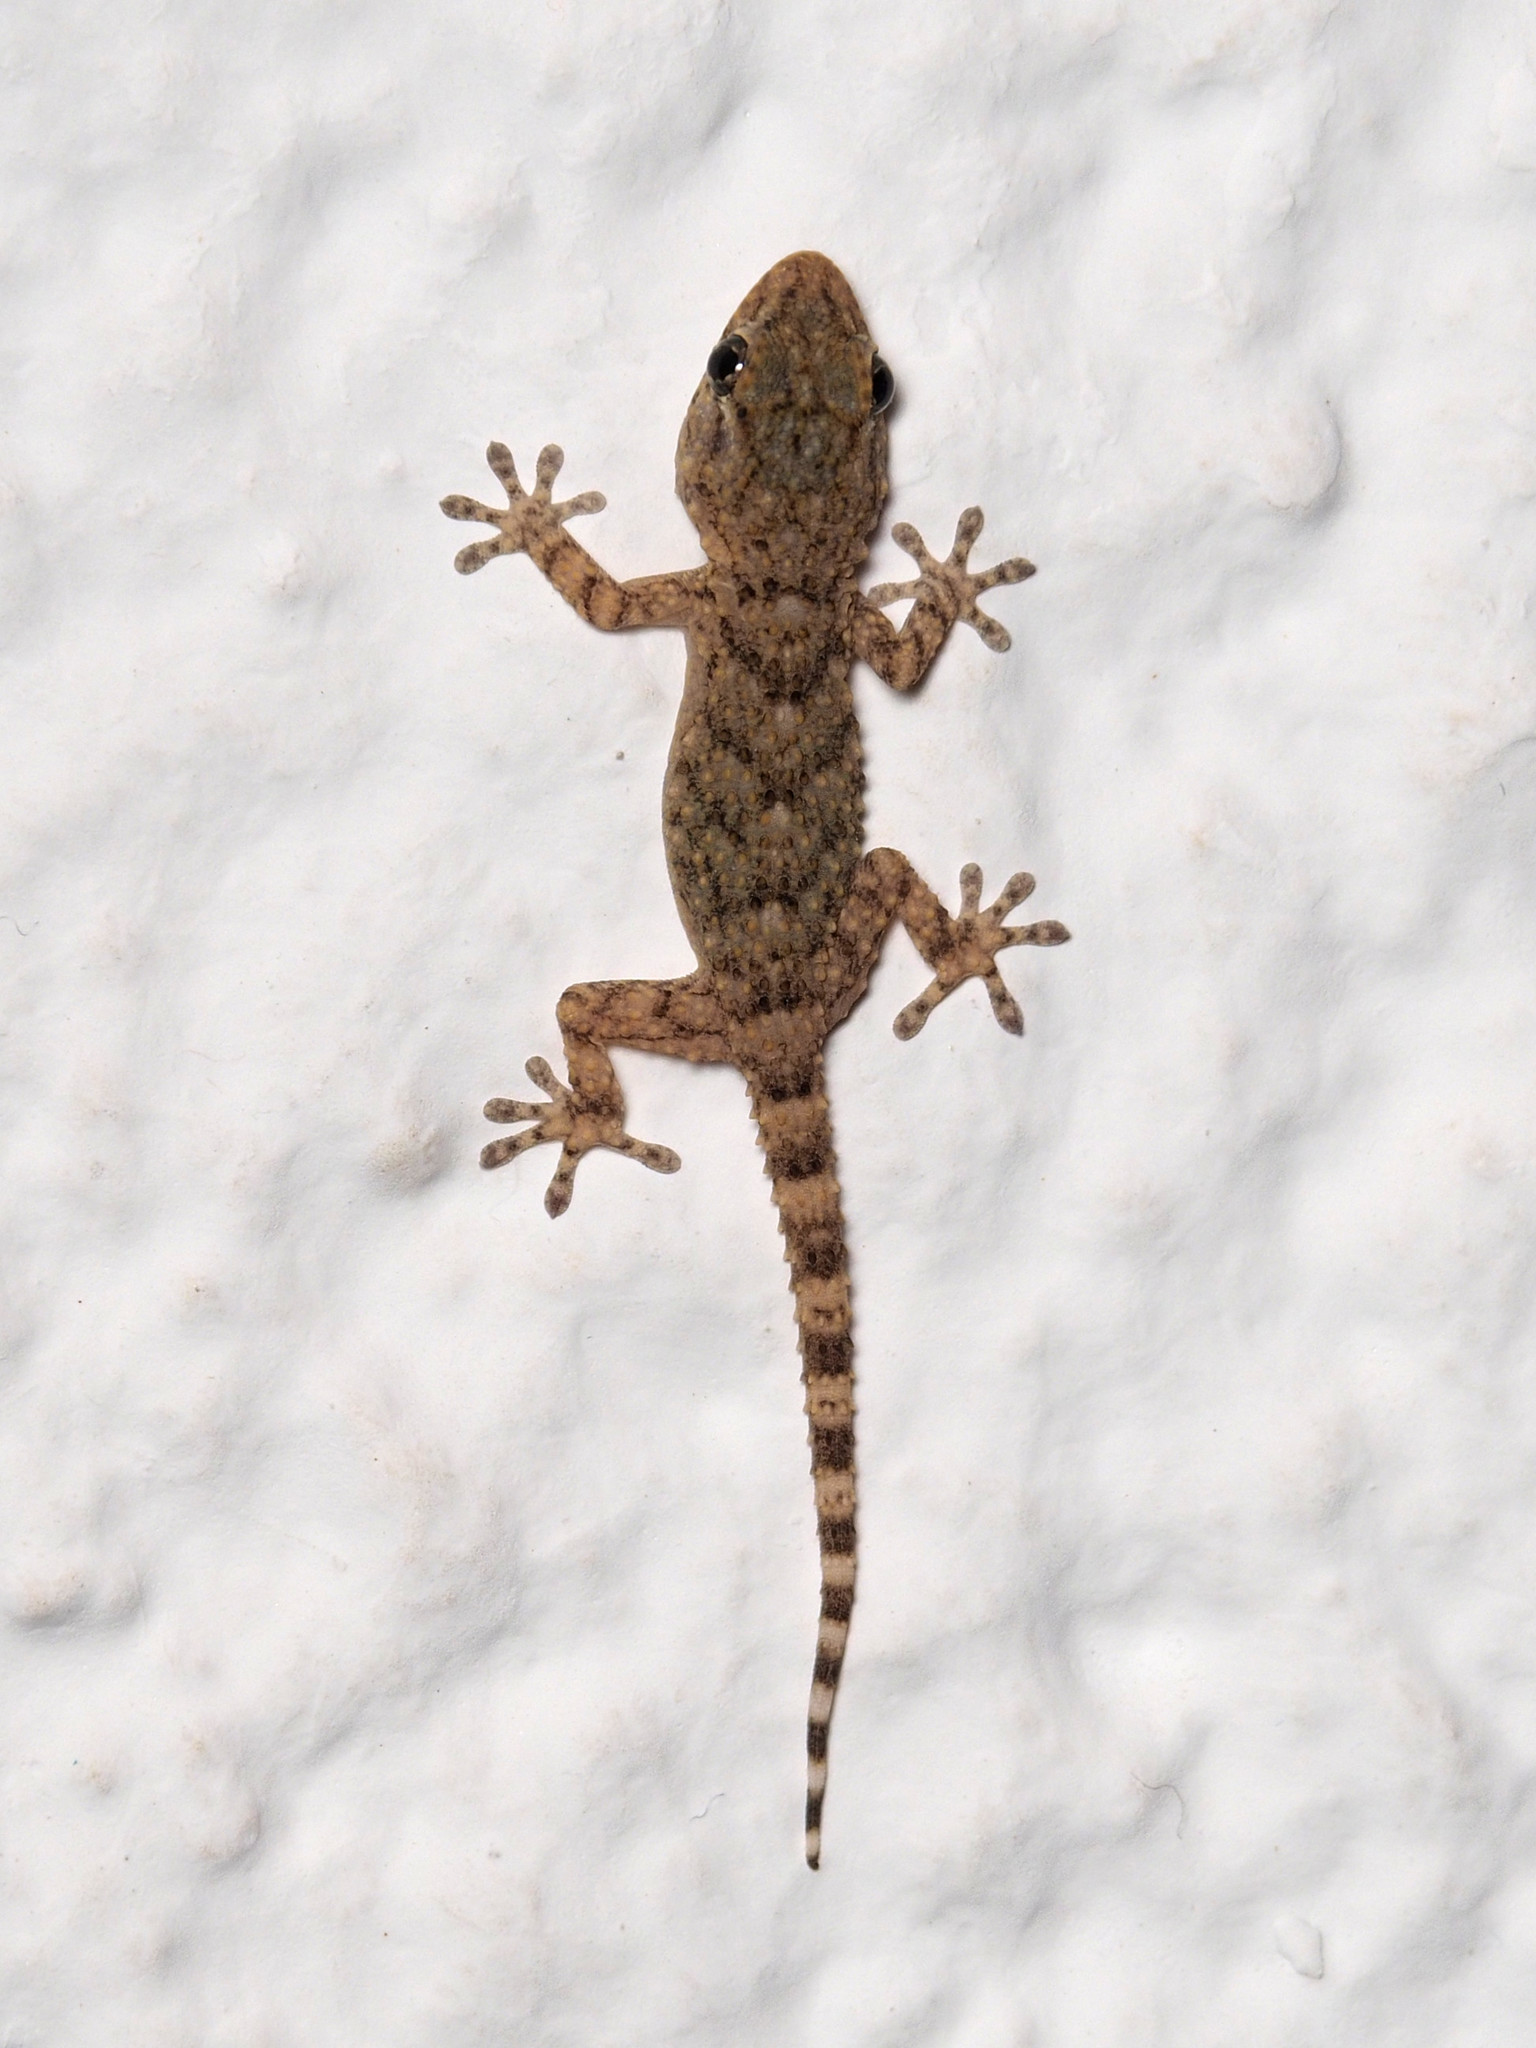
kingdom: Animalia
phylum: Chordata
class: Squamata
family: Phyllodactylidae
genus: Tarentola
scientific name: Tarentola mauritanica
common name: Moorish gecko
